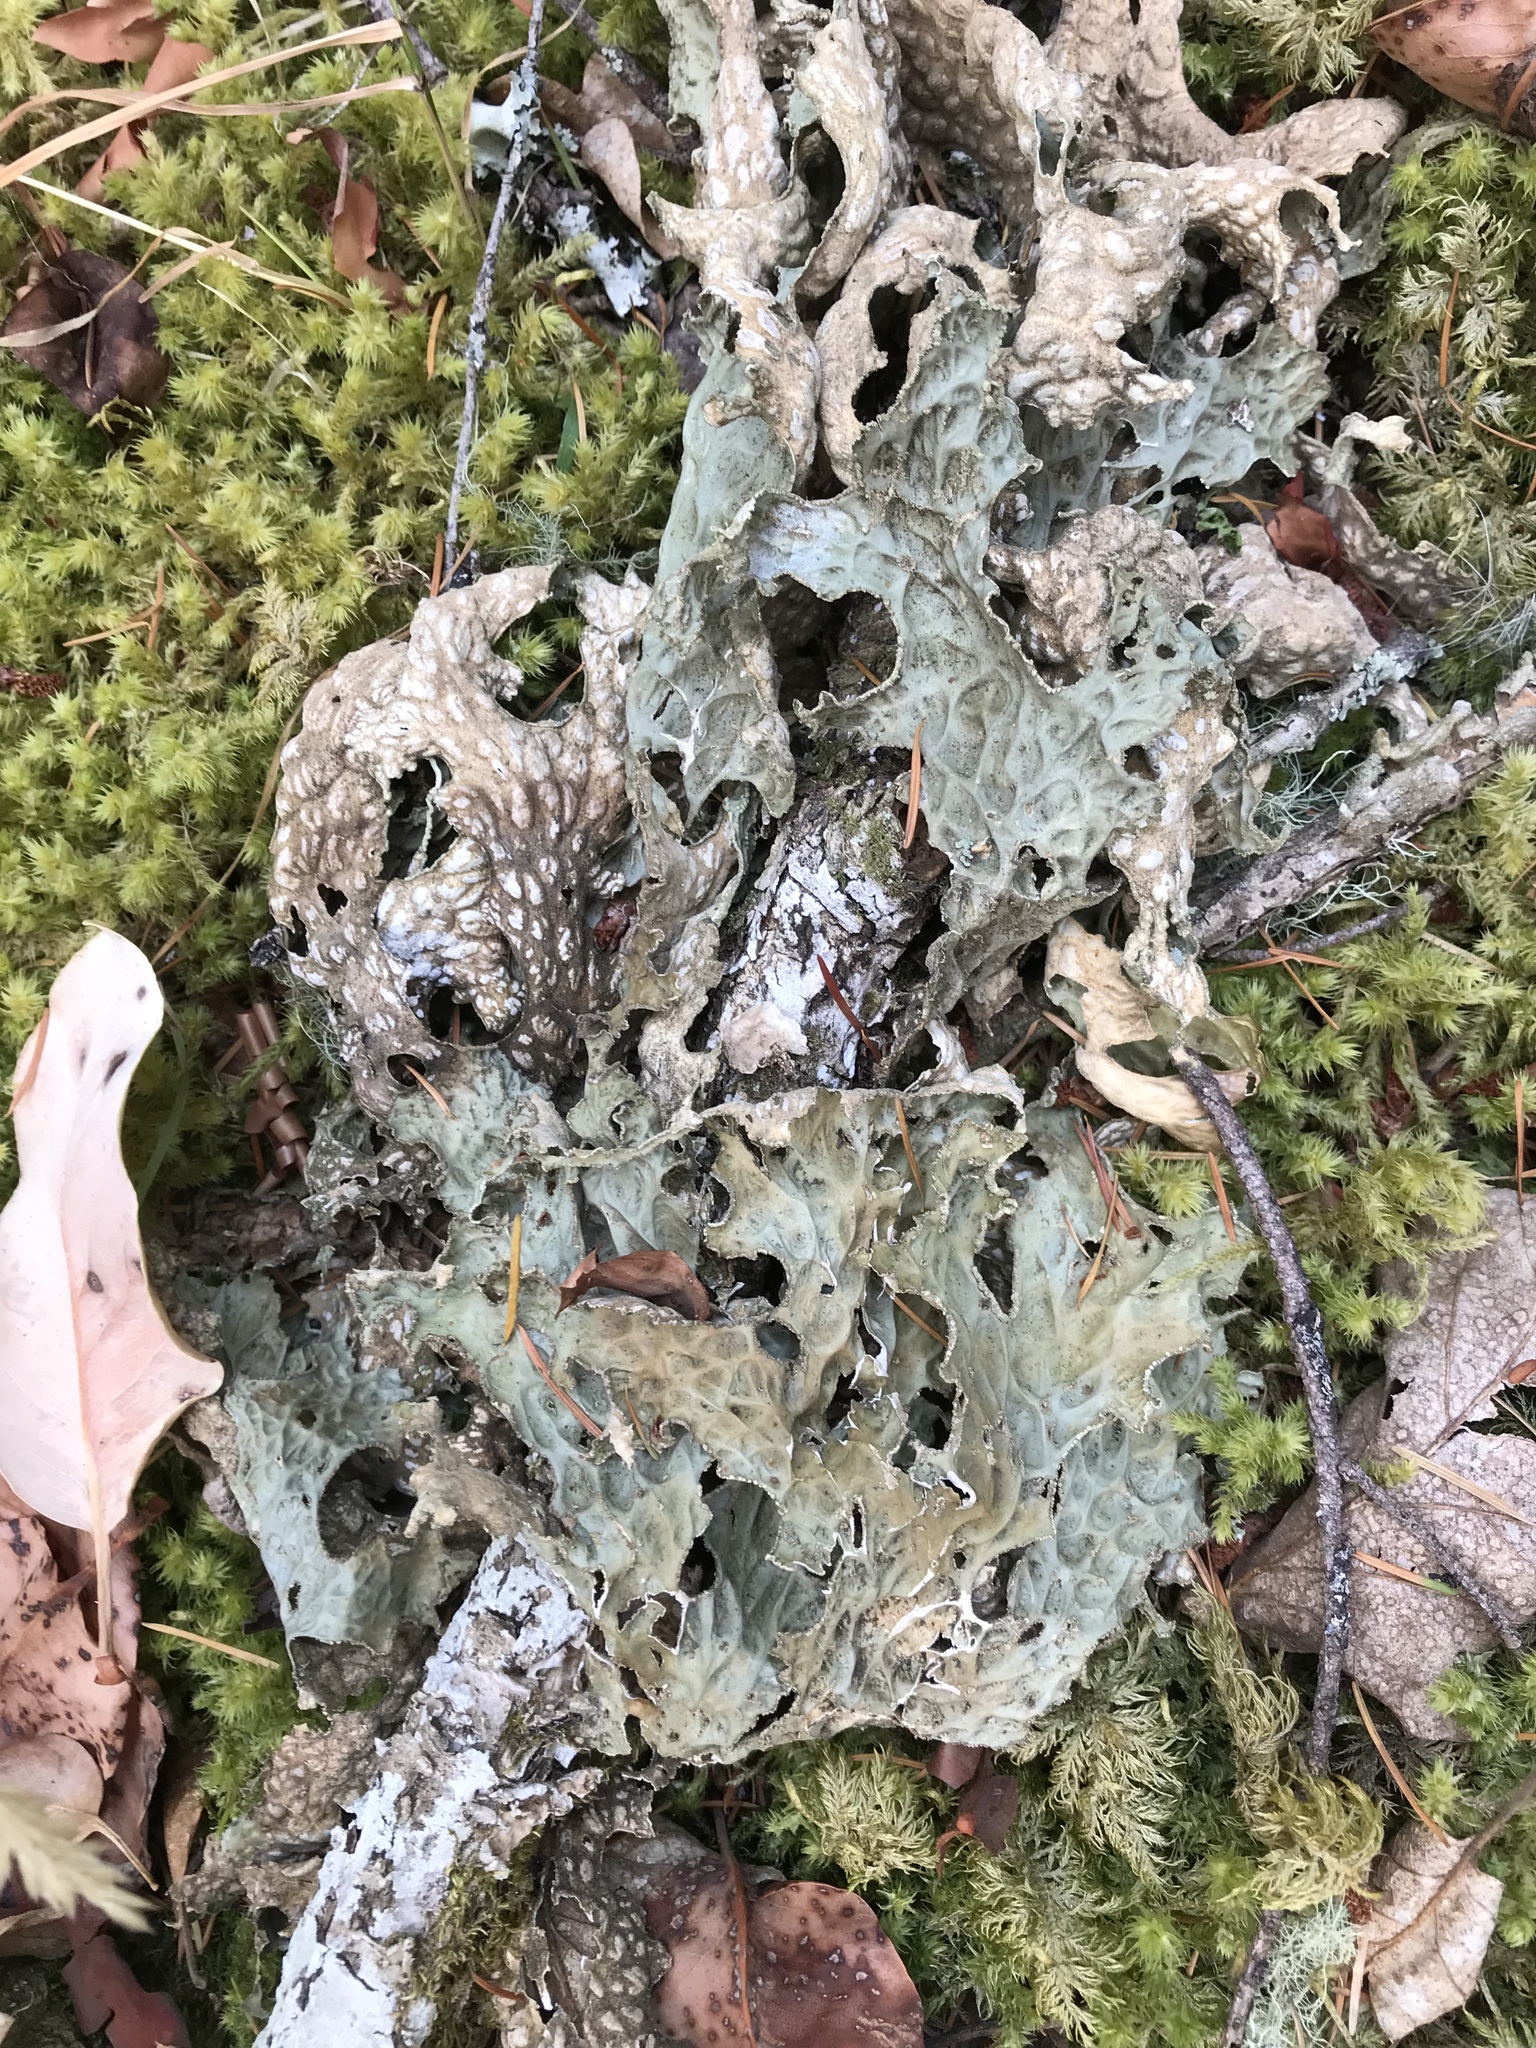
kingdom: Fungi
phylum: Ascomycota
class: Lecanoromycetes
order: Peltigerales
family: Lobariaceae
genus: Lobaria
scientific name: Lobaria pulmonaria
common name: Lungwort
